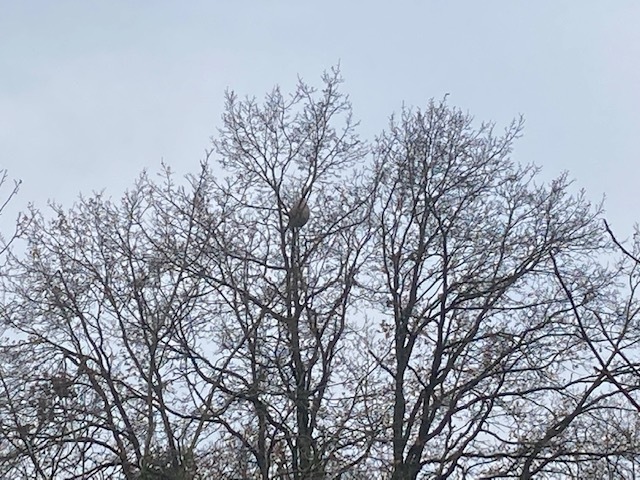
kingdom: Animalia
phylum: Arthropoda
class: Insecta
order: Hymenoptera
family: Vespidae
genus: Vespa
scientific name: Vespa velutina
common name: Asian hornet
